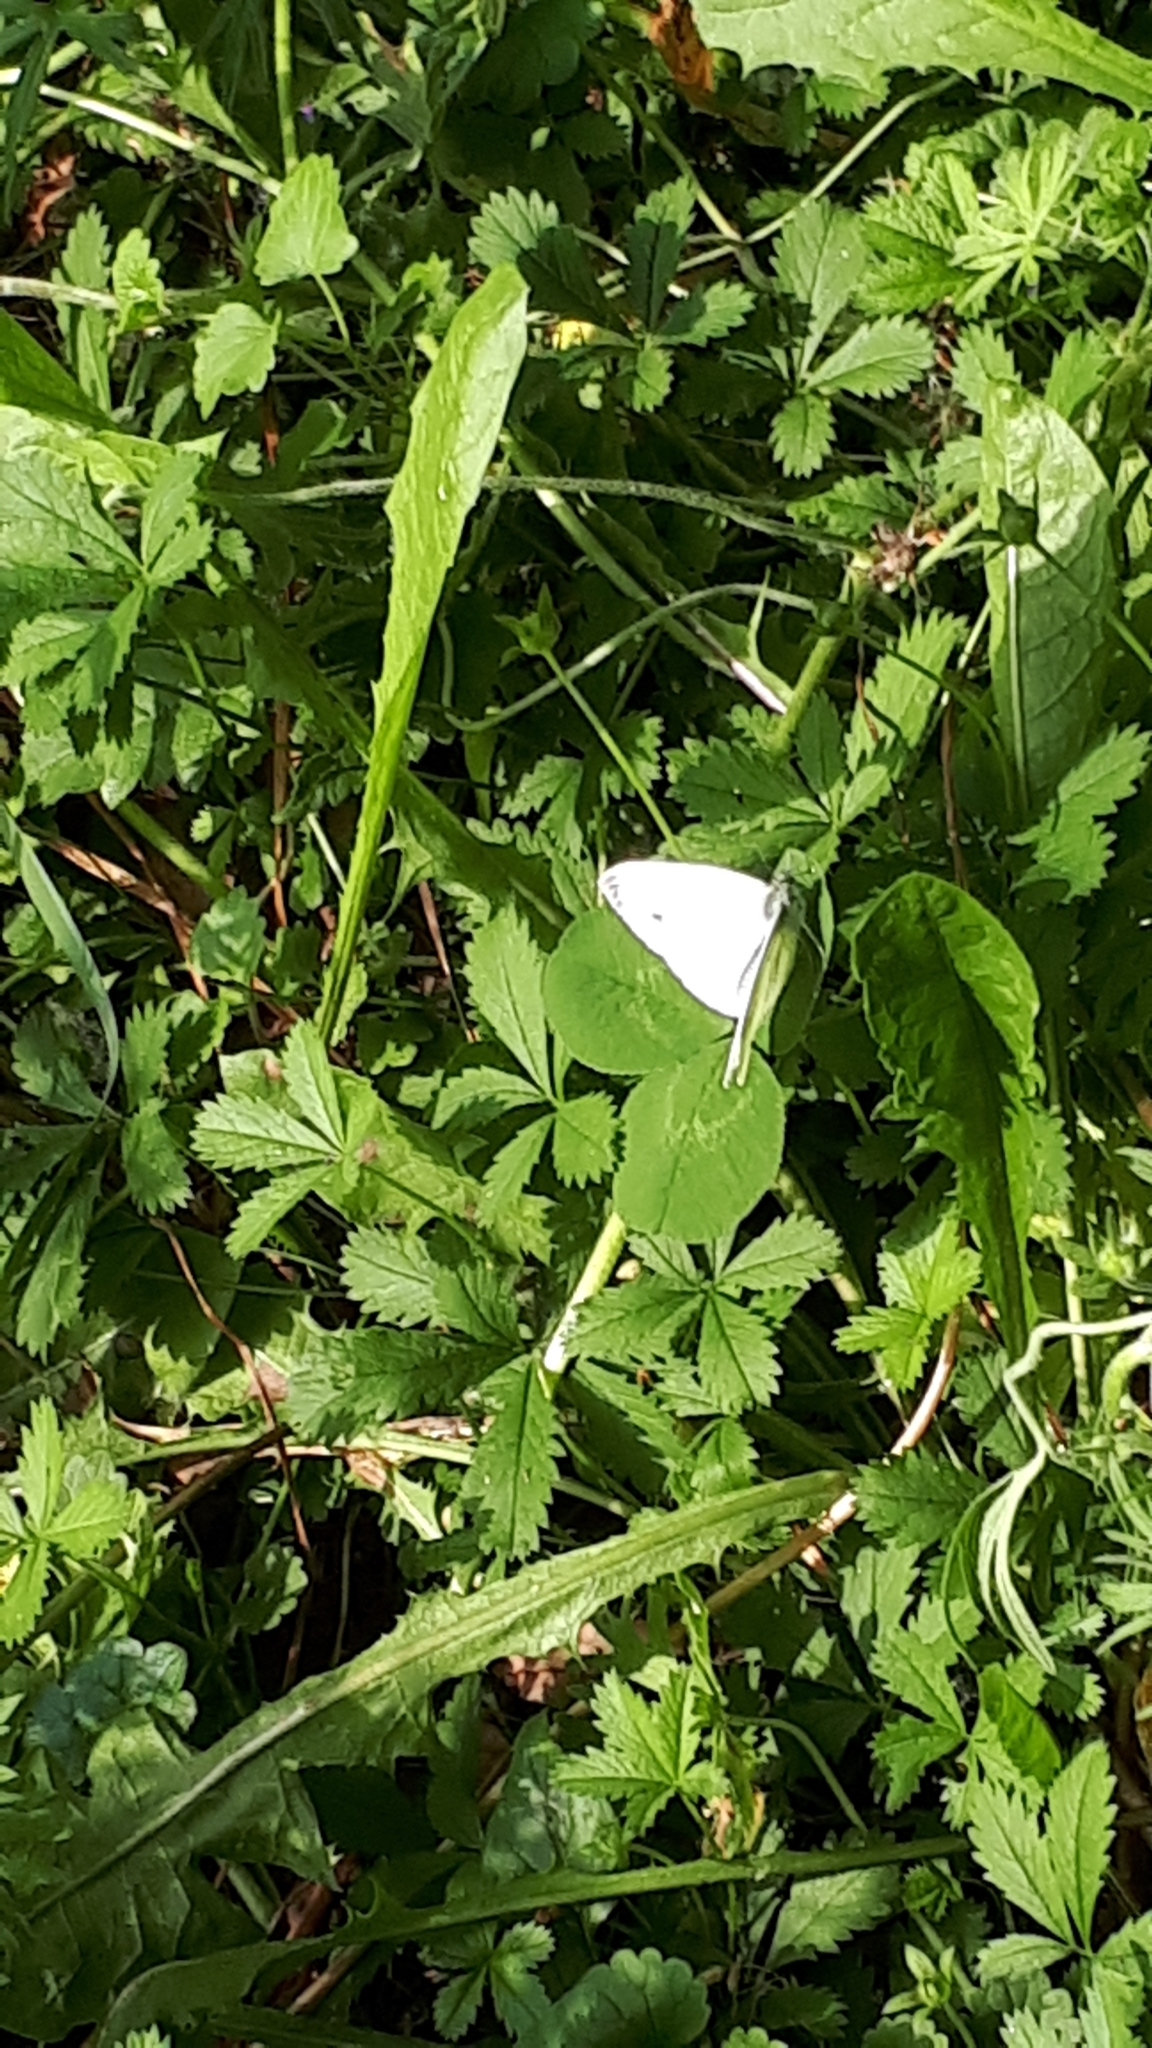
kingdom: Animalia
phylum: Arthropoda
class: Insecta
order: Lepidoptera
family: Pieridae
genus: Pieris
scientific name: Pieris napi
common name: Green-veined white
